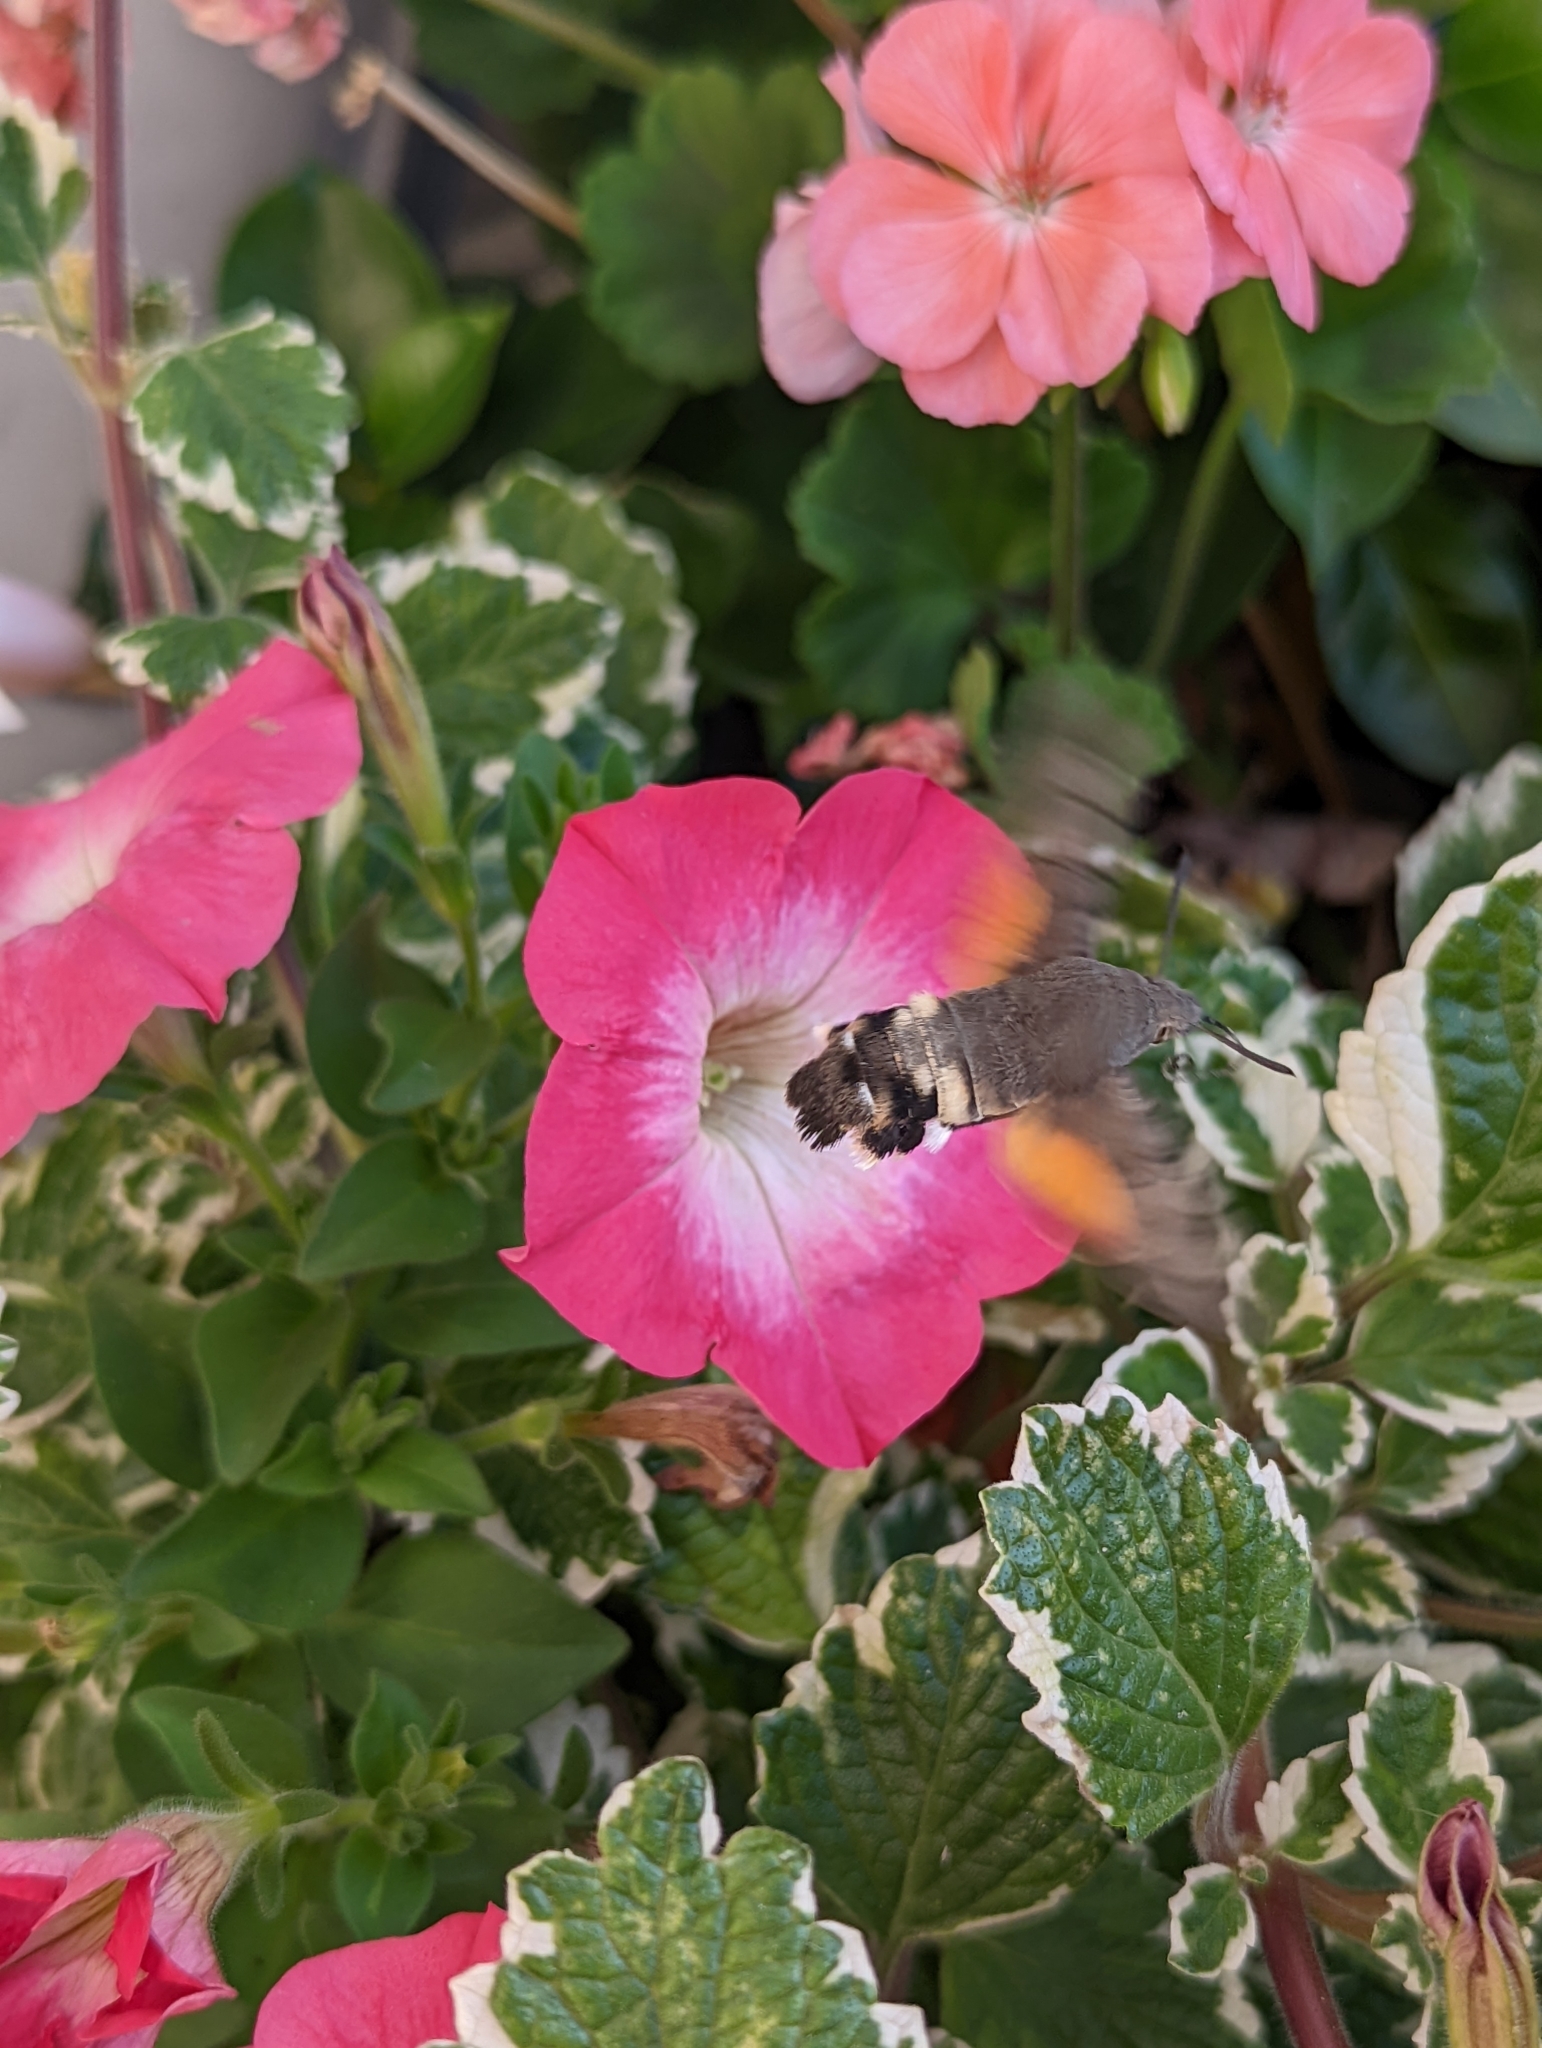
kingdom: Animalia
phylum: Arthropoda
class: Insecta
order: Lepidoptera
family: Sphingidae
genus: Macroglossum
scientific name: Macroglossum stellatarum
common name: Humming-bird hawk-moth
